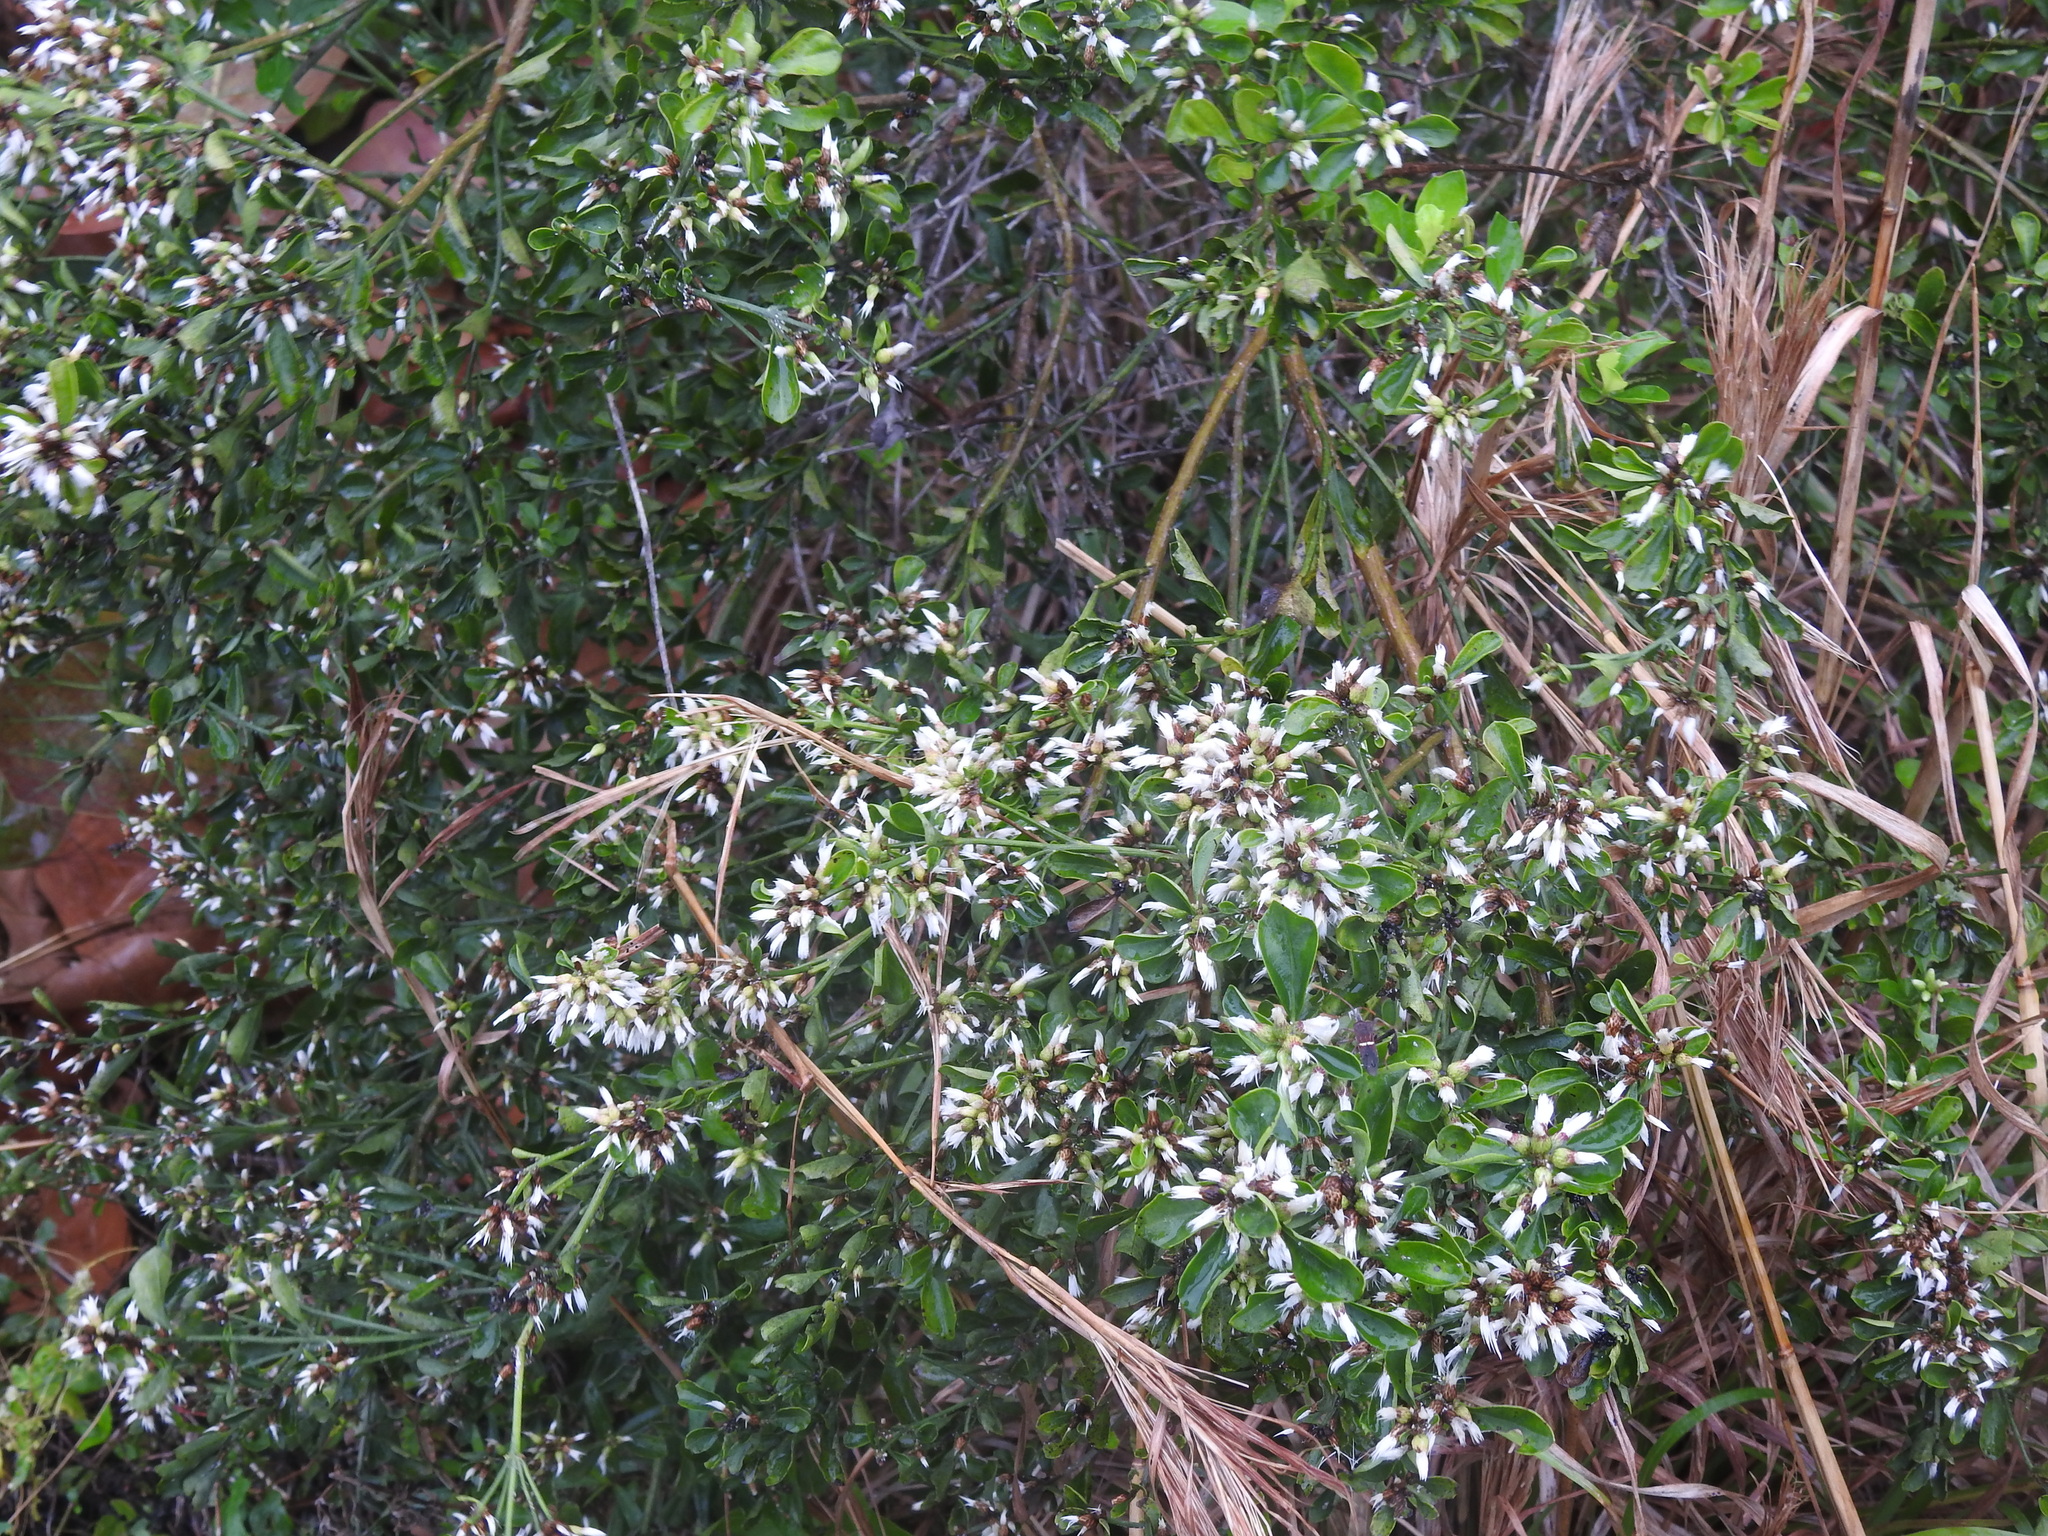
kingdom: Plantae
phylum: Tracheophyta
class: Magnoliopsida
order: Asterales
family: Asteraceae
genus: Baccharis
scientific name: Baccharis halimifolia
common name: Eastern baccharis
